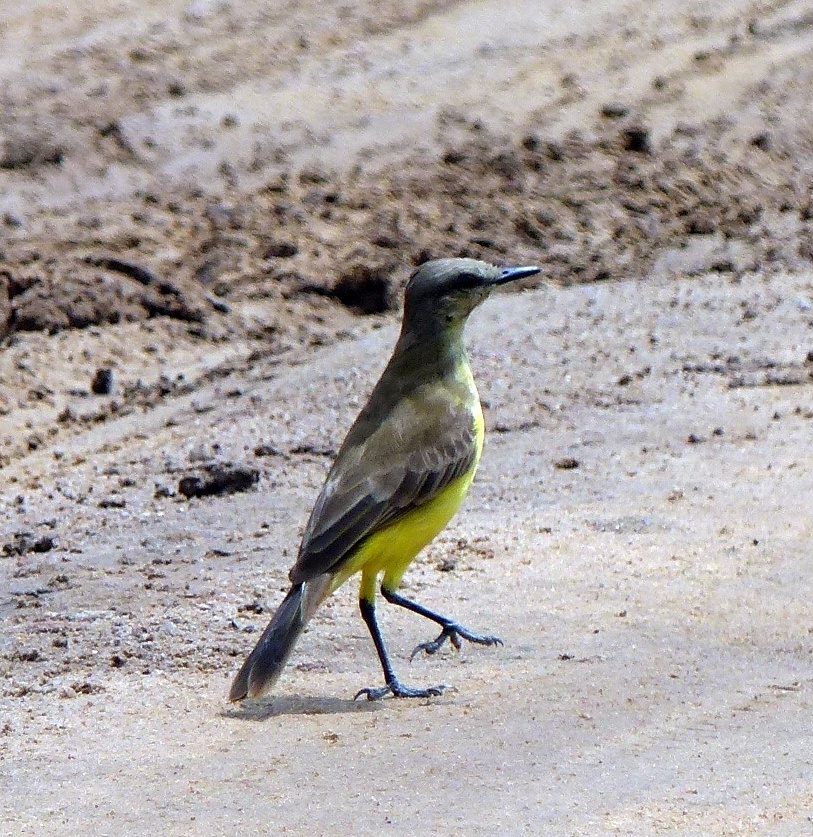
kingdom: Animalia
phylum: Chordata
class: Aves
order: Passeriformes
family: Tyrannidae
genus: Machetornis
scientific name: Machetornis rixosa
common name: Cattle tyrant
